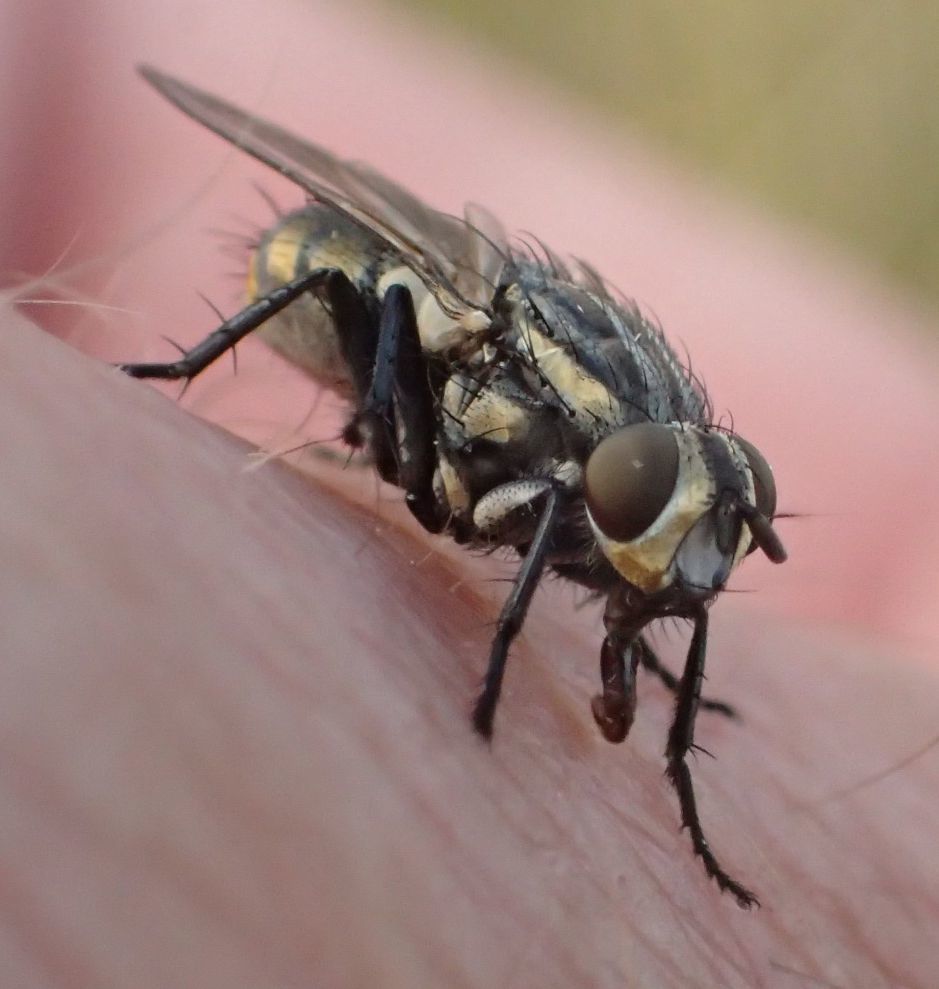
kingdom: Animalia
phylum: Arthropoda
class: Insecta
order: Diptera
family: Sarcophagidae
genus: Oxysarcodexia
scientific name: Oxysarcodexia varia
